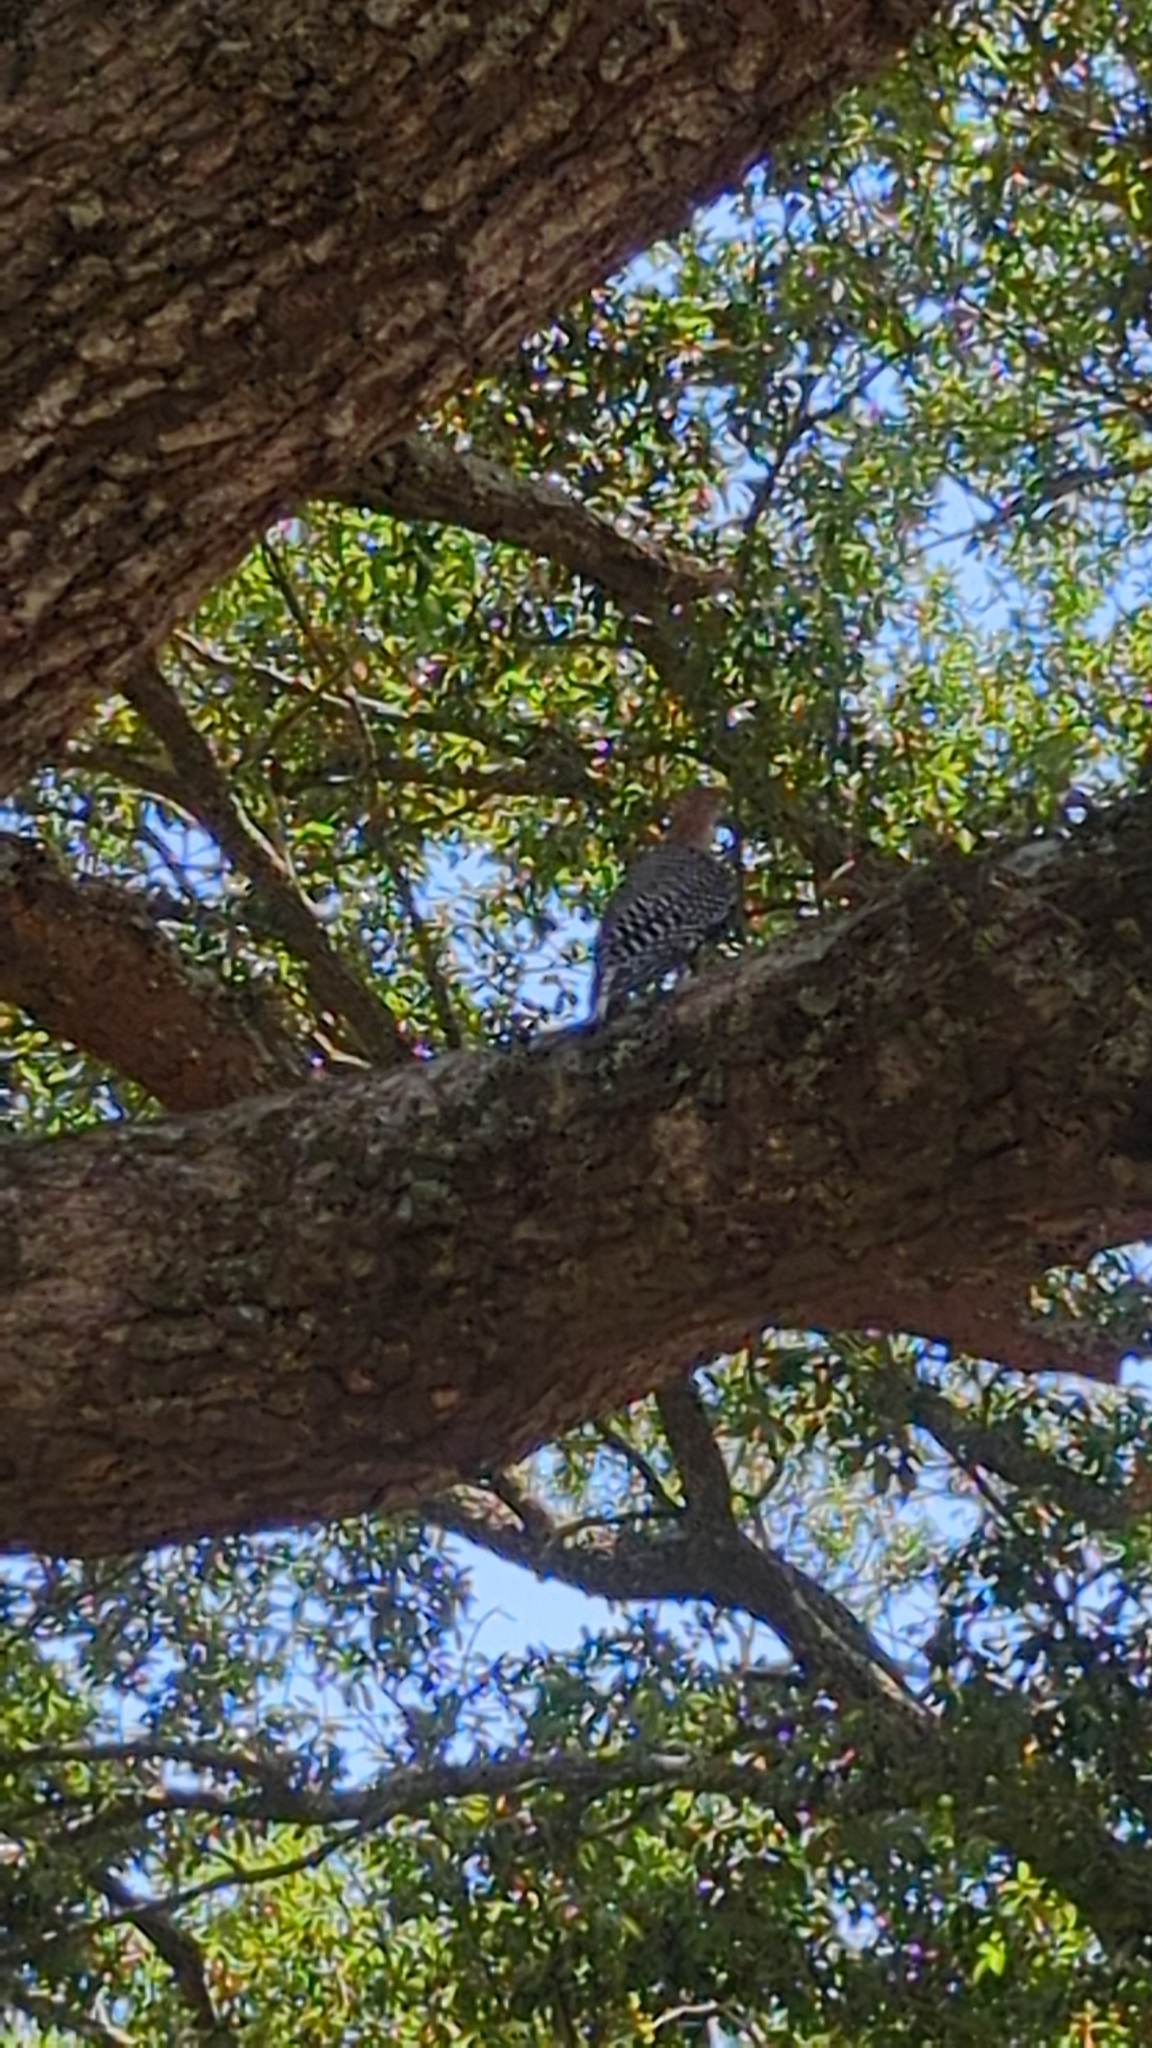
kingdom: Animalia
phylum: Chordata
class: Aves
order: Piciformes
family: Picidae
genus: Melanerpes
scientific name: Melanerpes carolinus
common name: Red-bellied woodpecker
